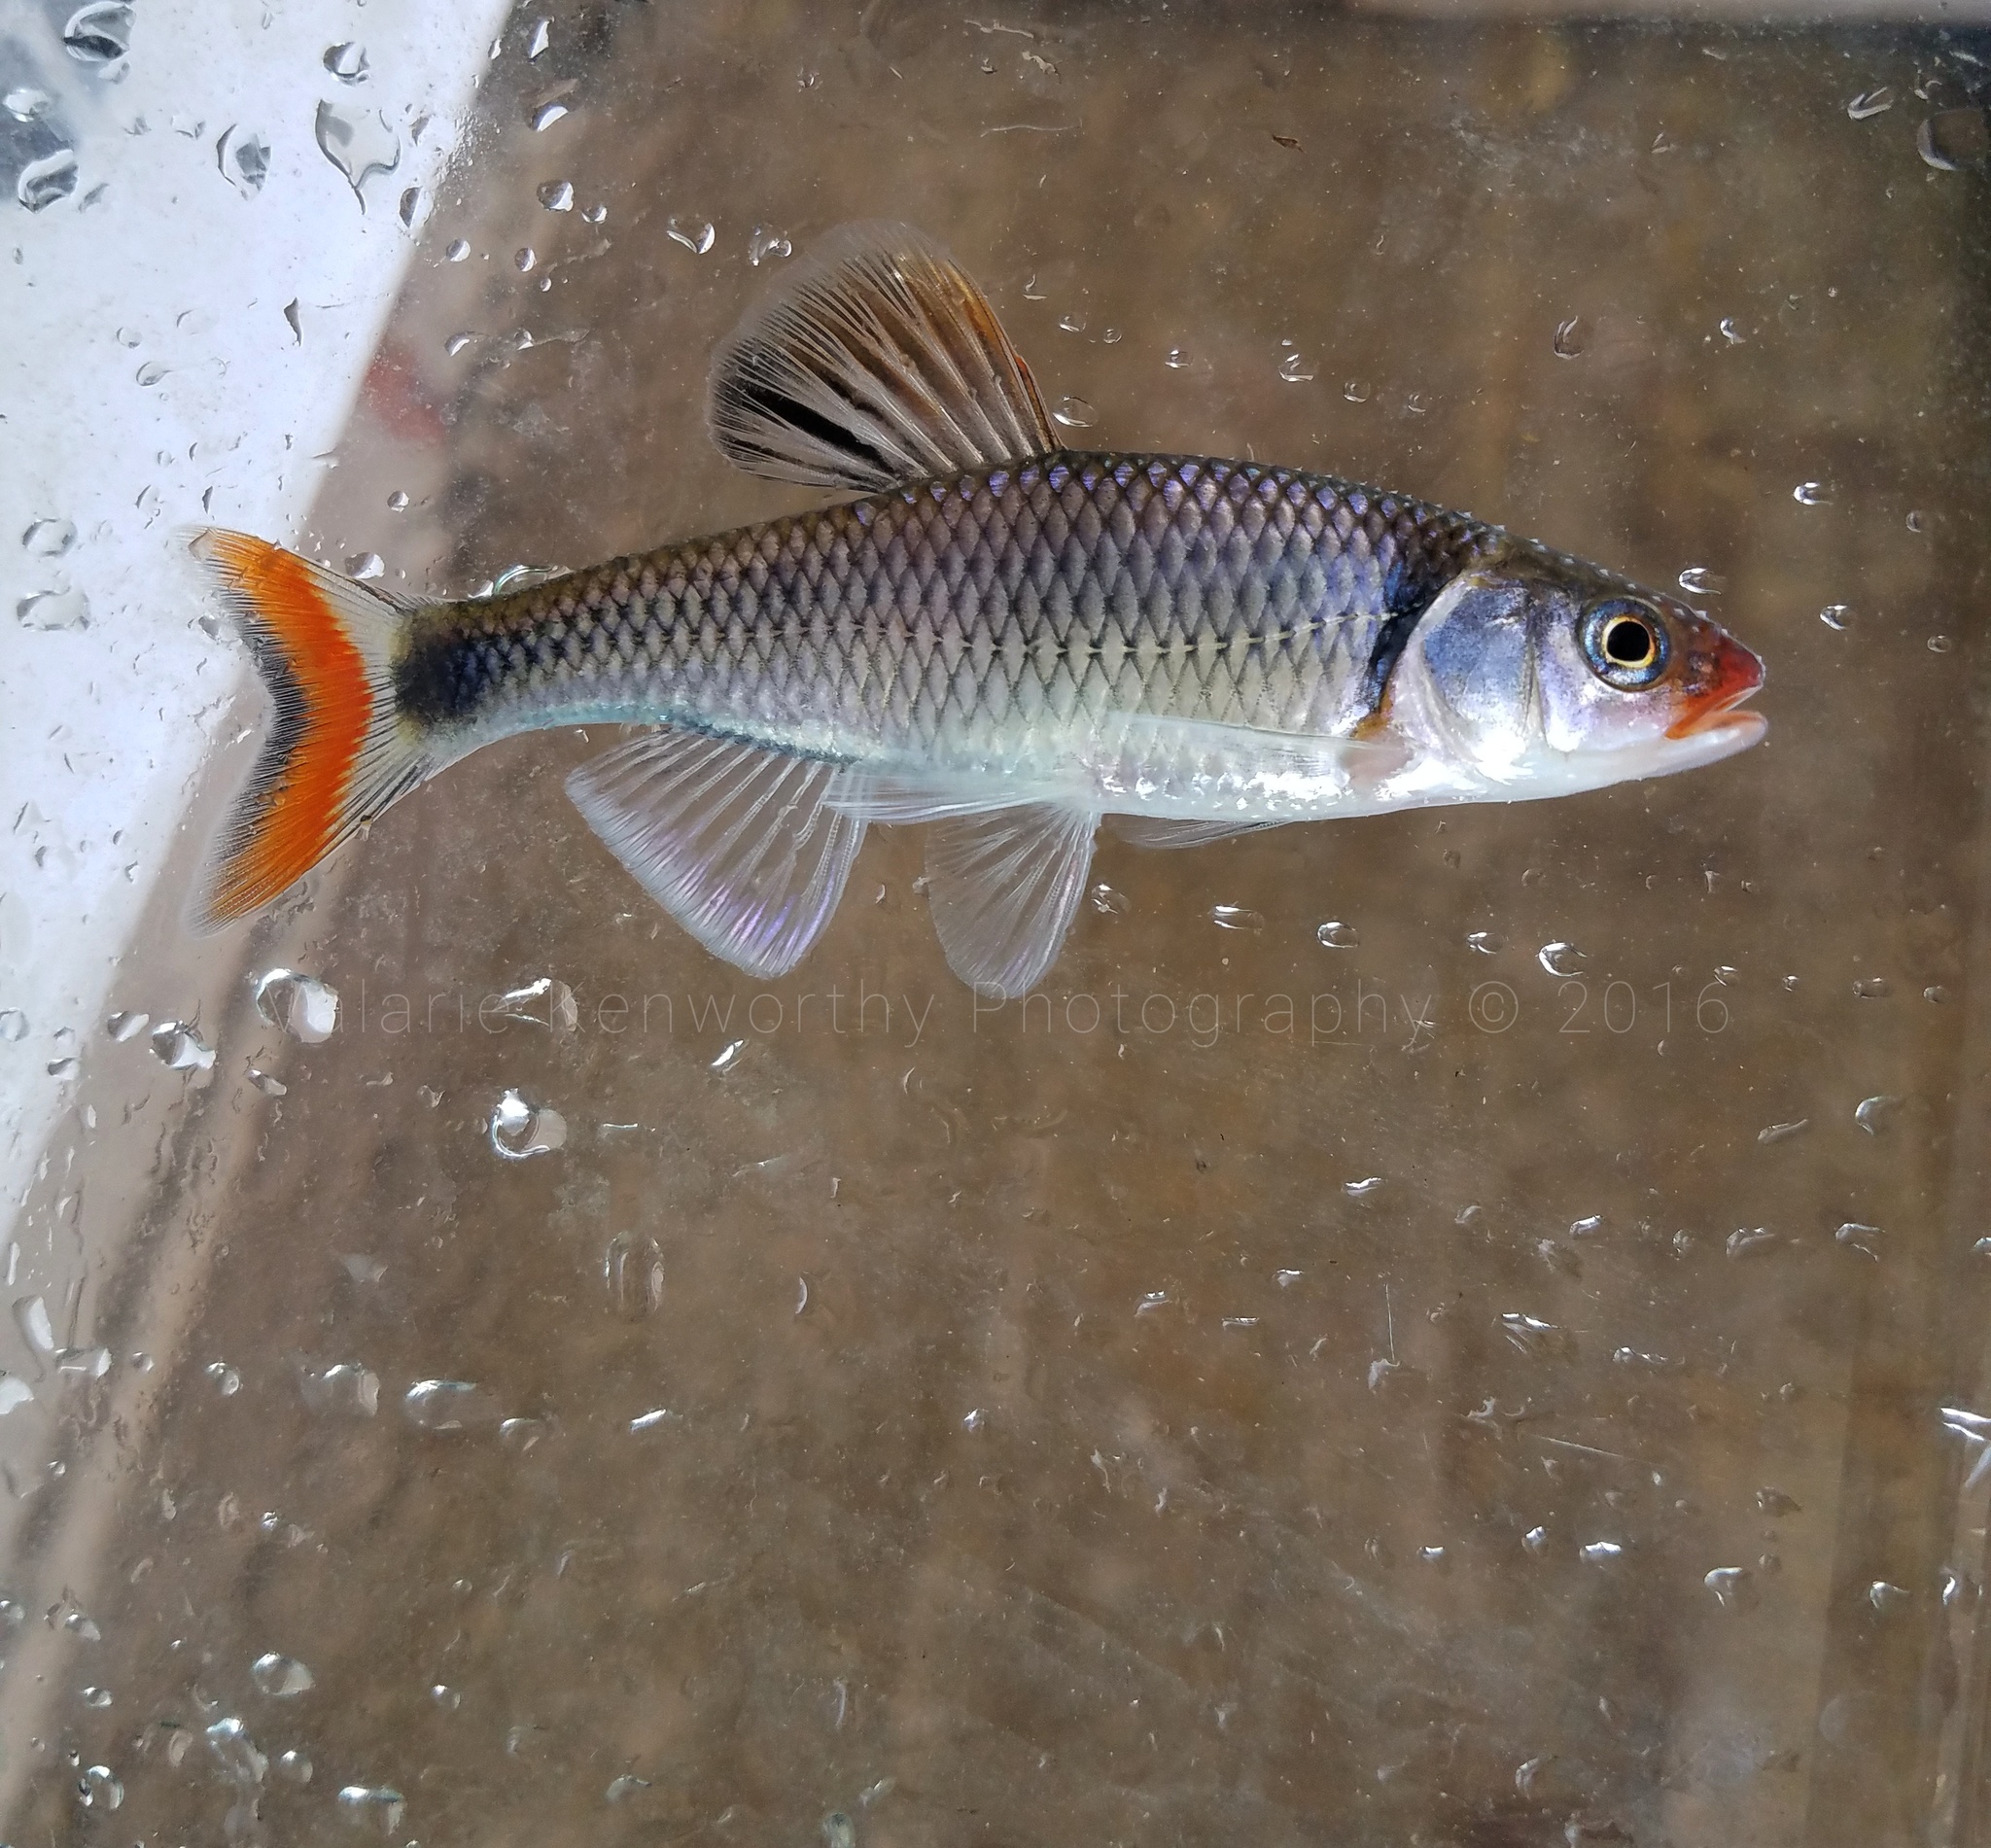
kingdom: Animalia
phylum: Chordata
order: Cypriniformes
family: Cyprinidae
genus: Cyprinella
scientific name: Cyprinella pyrrhomelas
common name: Fieryblack shiner
